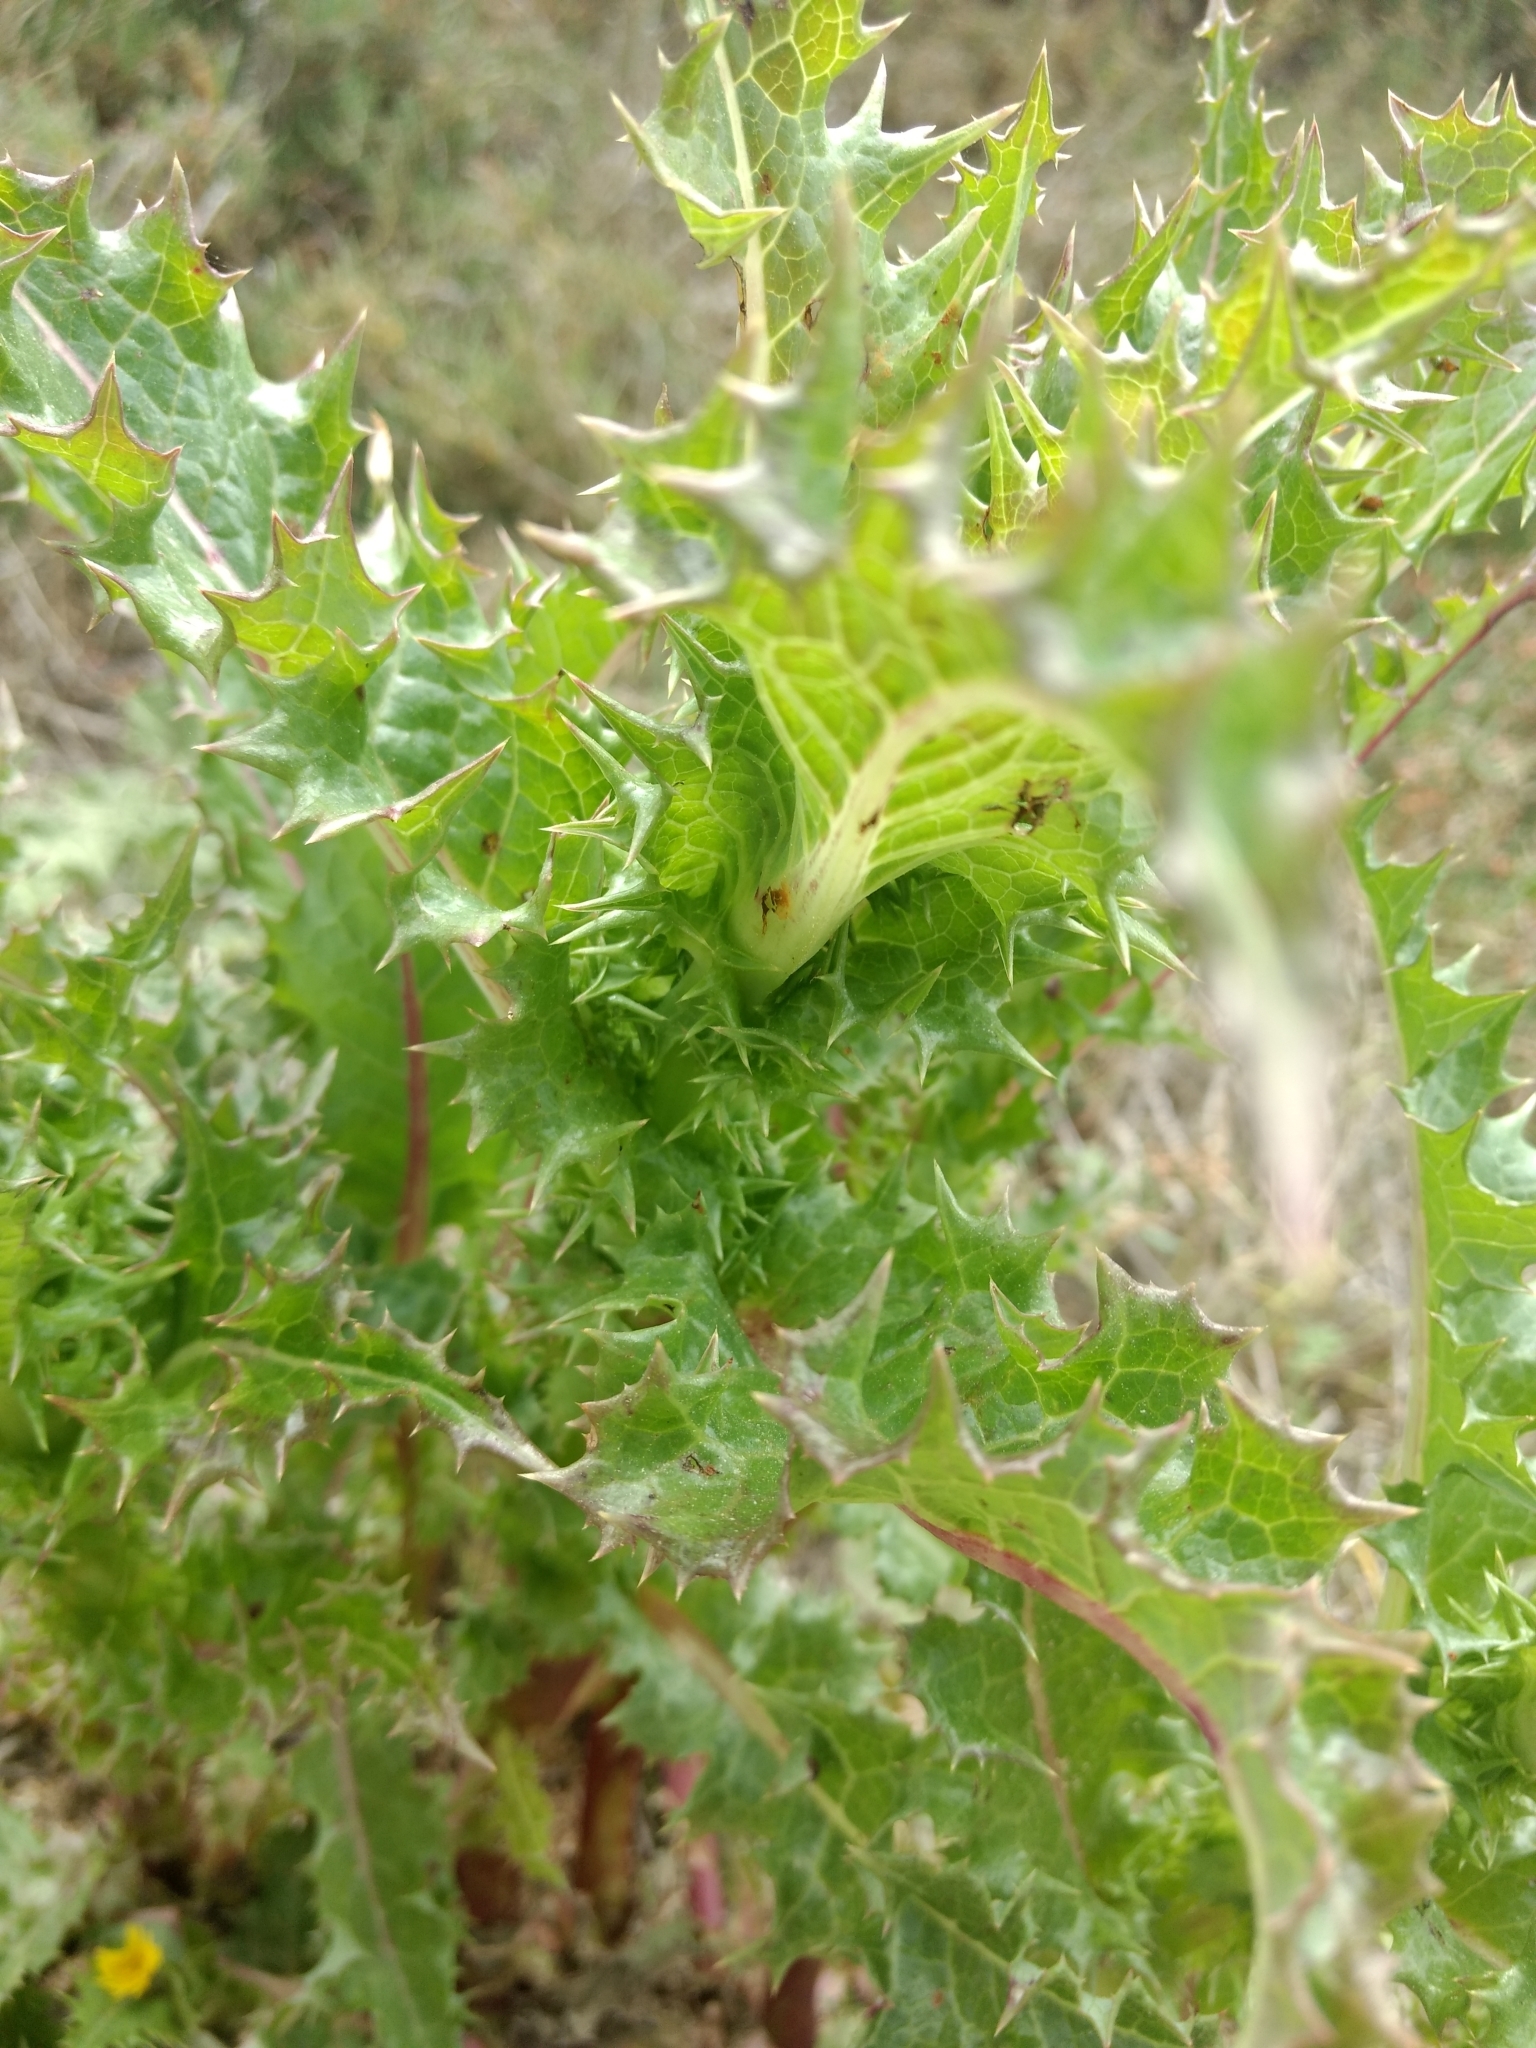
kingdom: Plantae
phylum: Tracheophyta
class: Magnoliopsida
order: Asterales
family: Asteraceae
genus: Sonchus
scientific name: Sonchus asper
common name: Prickly sow-thistle
